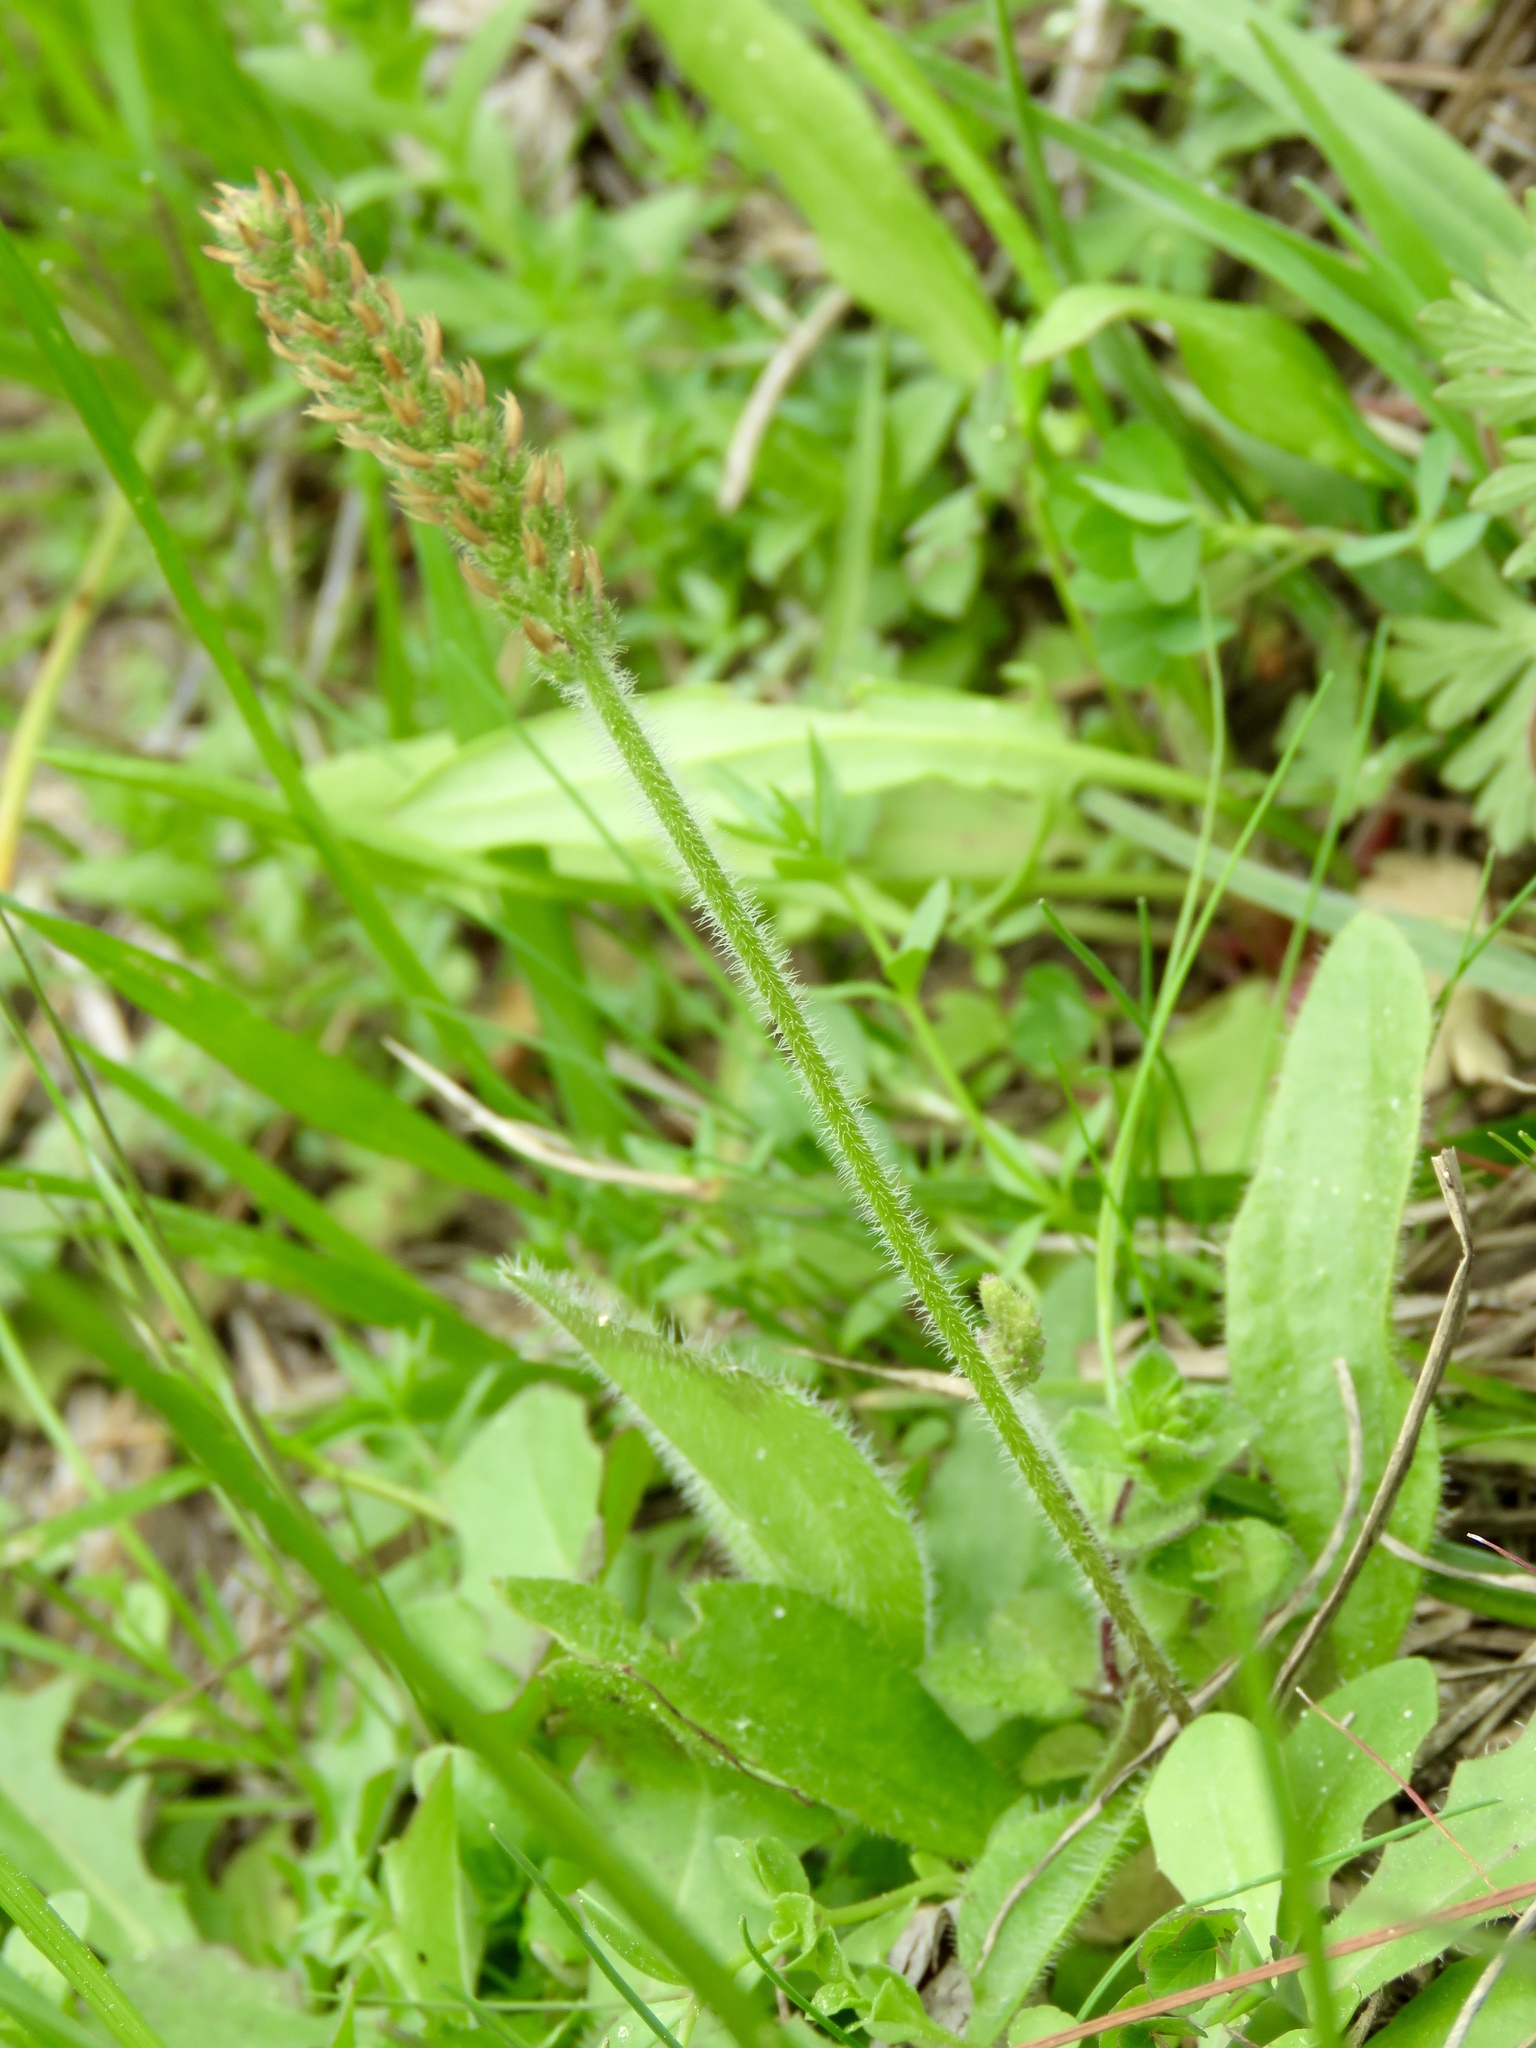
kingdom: Plantae
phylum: Tracheophyta
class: Magnoliopsida
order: Lamiales
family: Plantaginaceae
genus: Plantago
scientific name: Plantago virginica
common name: Hoary plantain
